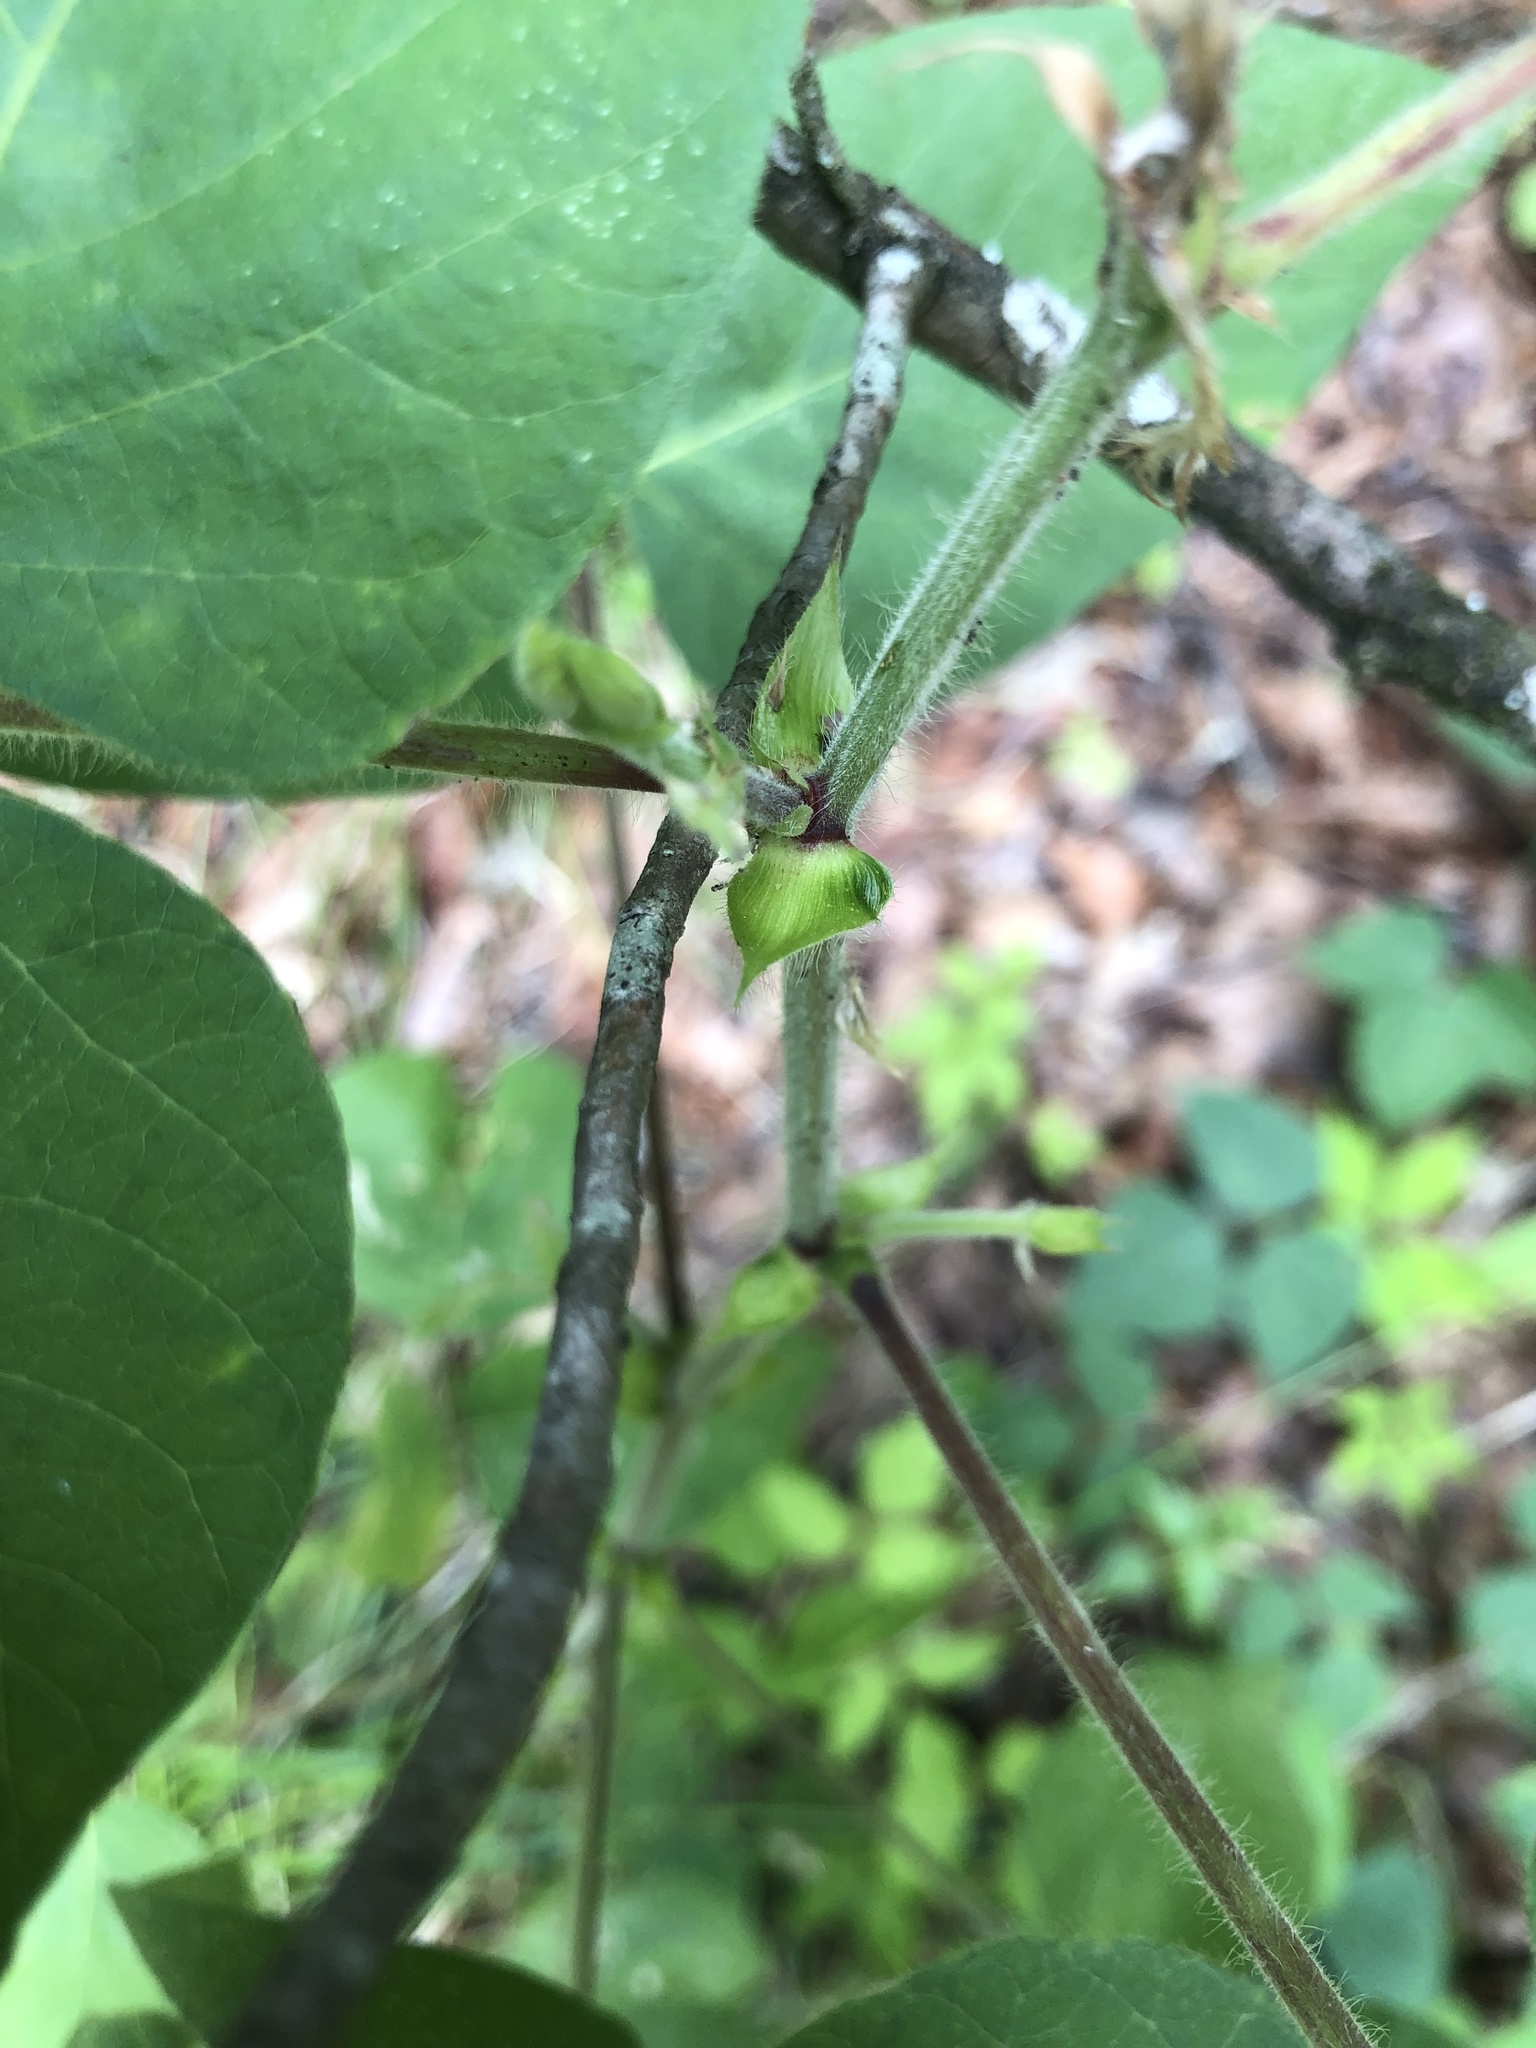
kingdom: Plantae
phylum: Tracheophyta
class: Magnoliopsida
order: Fabales
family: Fabaceae
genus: Desmodium
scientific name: Desmodium canescens
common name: Hoary tick-clover
